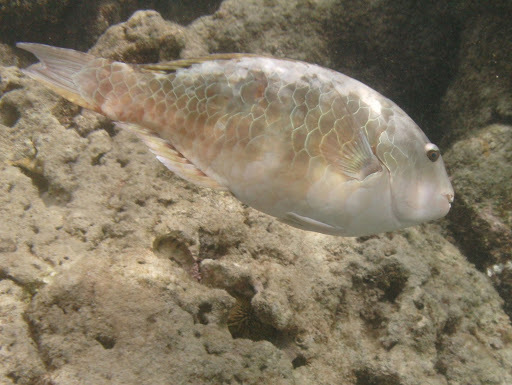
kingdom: Animalia
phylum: Chordata
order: Perciformes
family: Scaridae
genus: Calotomus
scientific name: Calotomus carolinus
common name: Bucktooth
